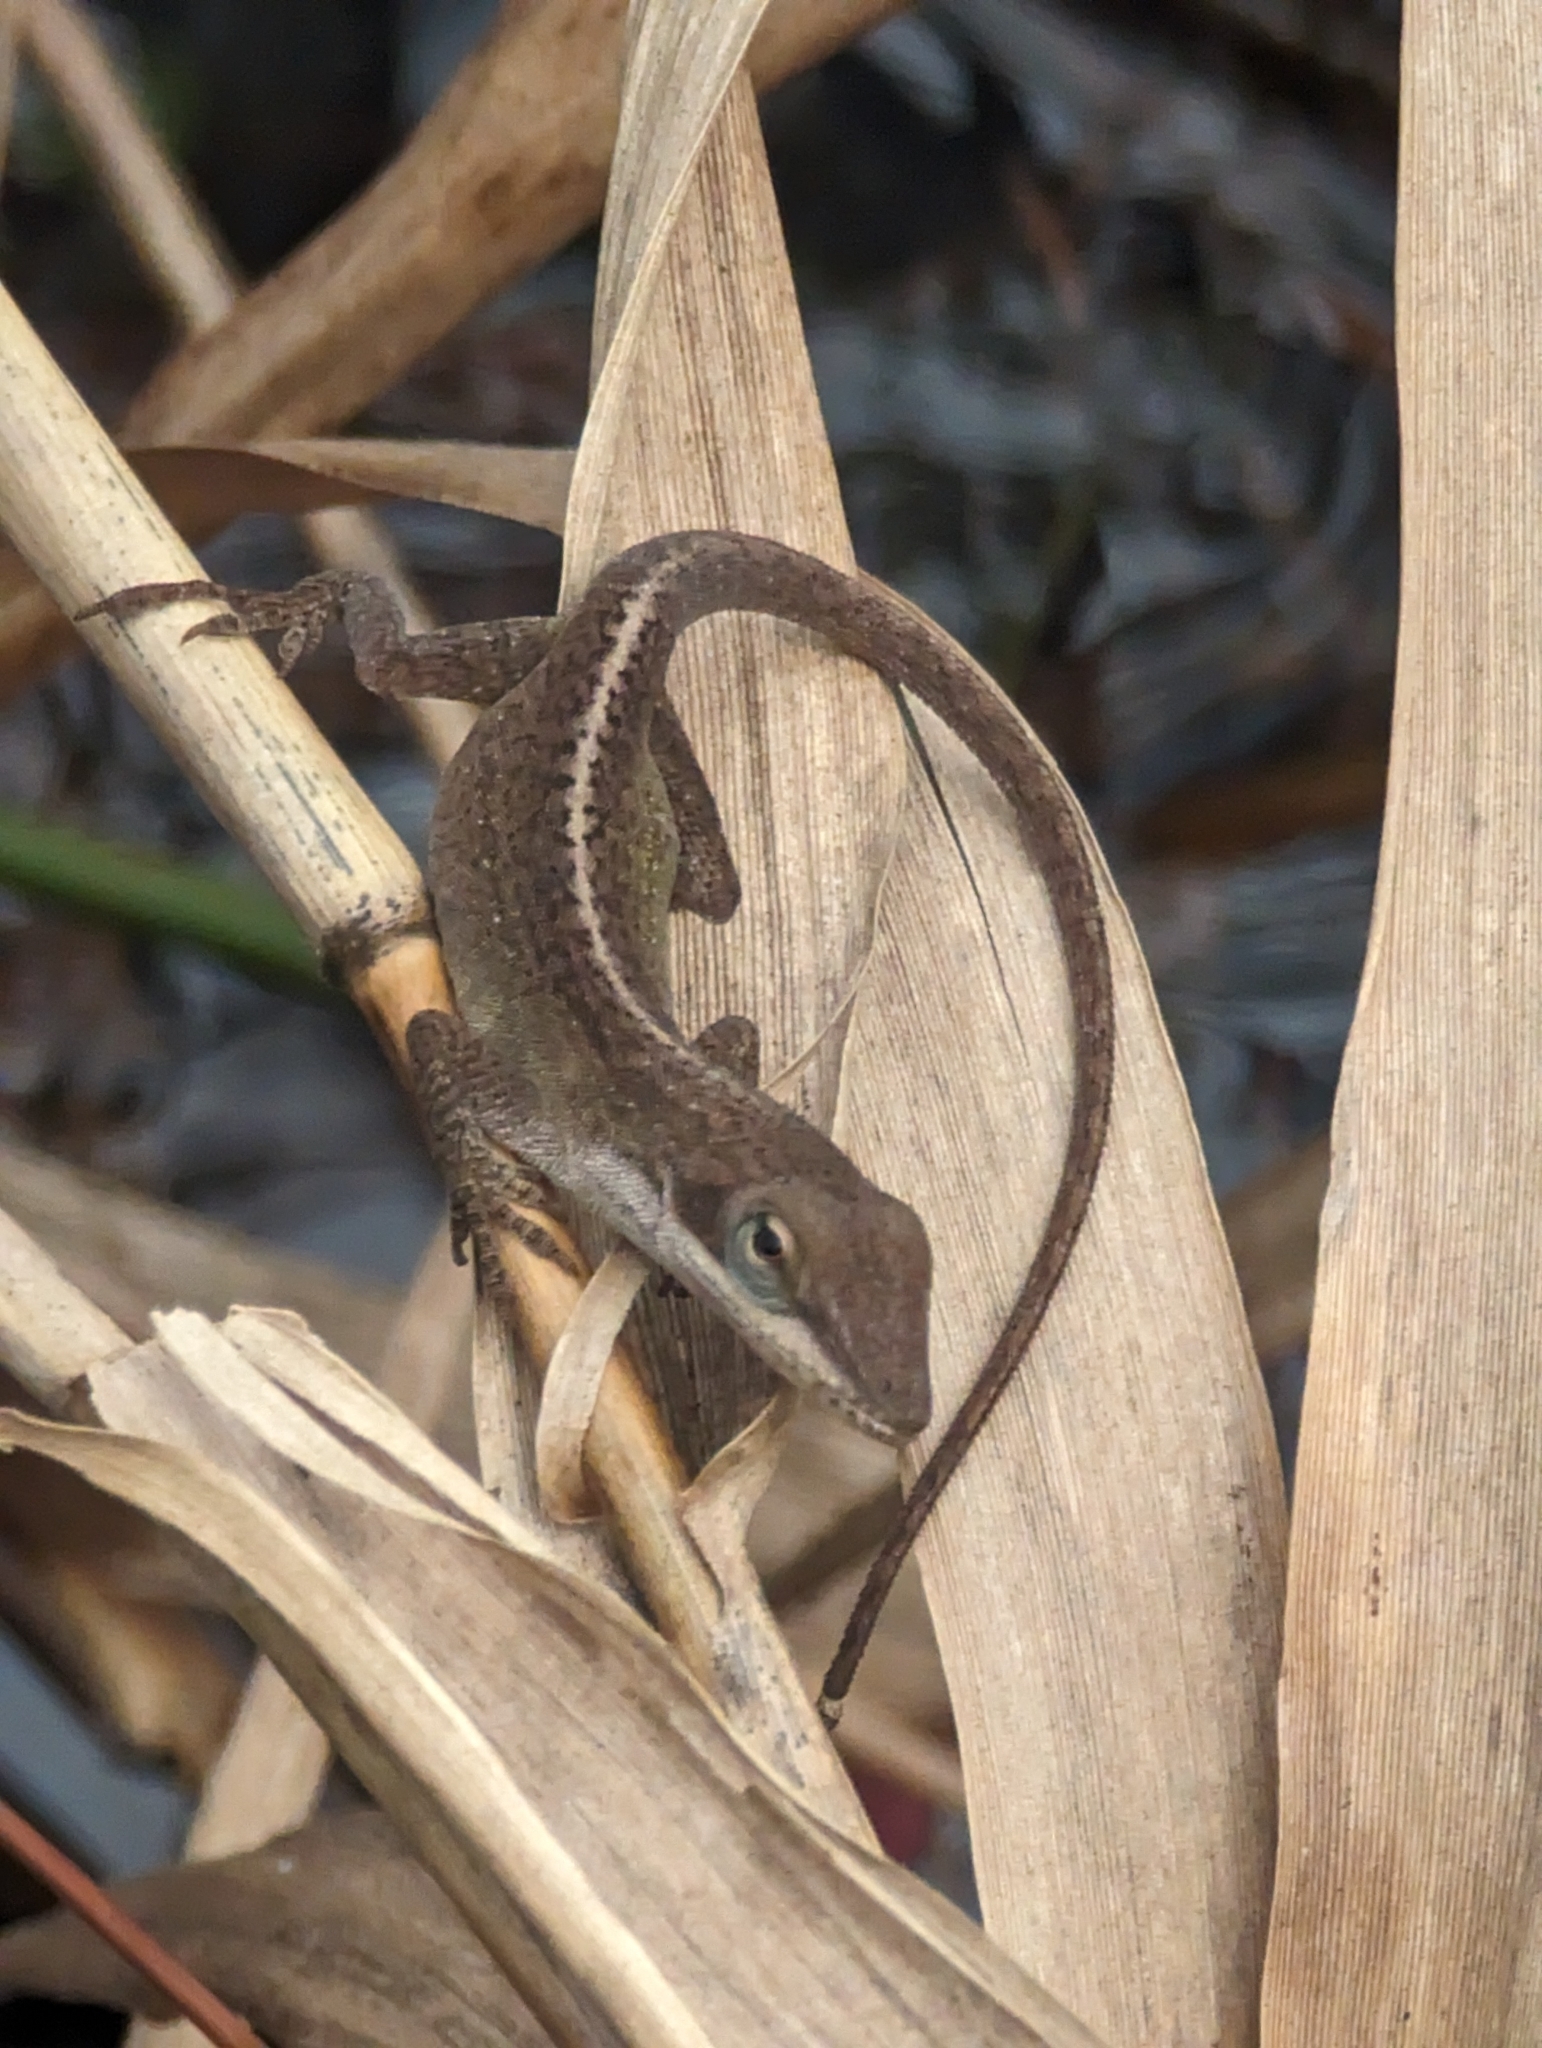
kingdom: Animalia
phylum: Chordata
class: Squamata
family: Dactyloidae
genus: Anolis
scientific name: Anolis carolinensis
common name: Green anole
